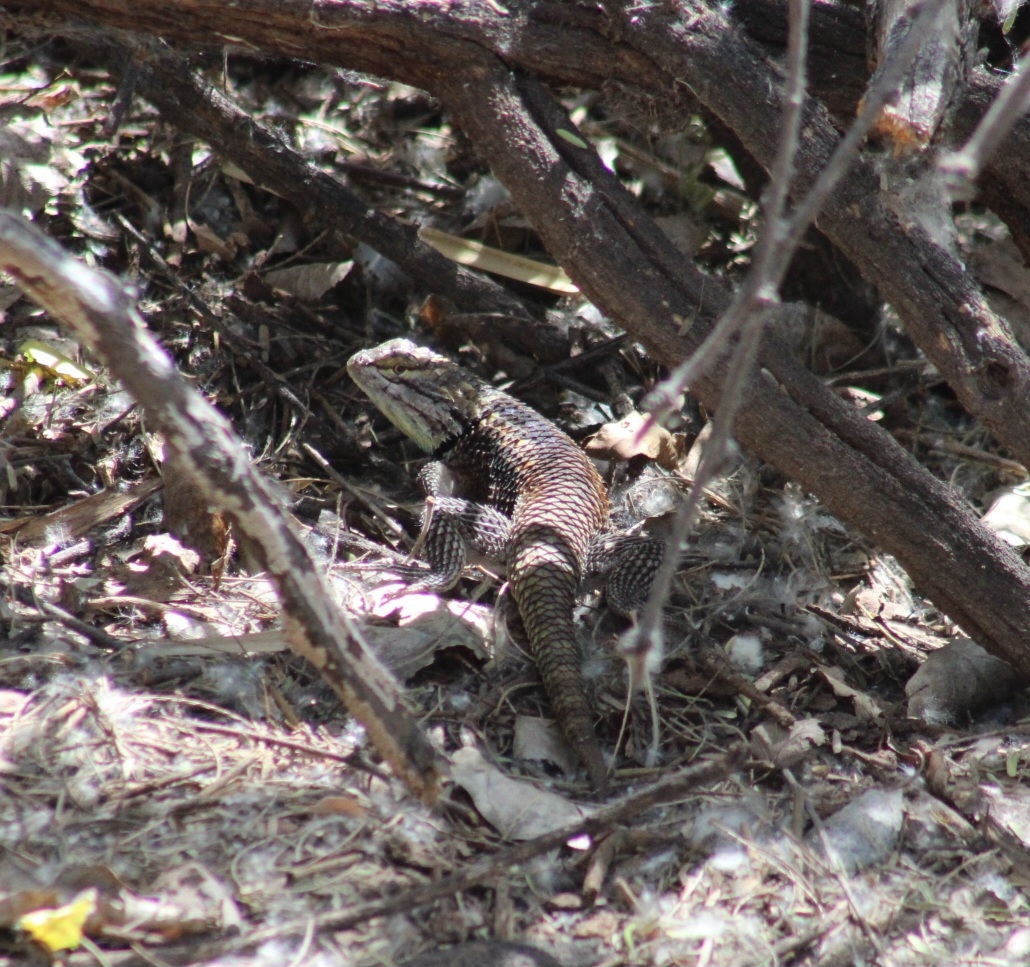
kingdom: Animalia
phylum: Chordata
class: Squamata
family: Phrynosomatidae
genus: Sceloporus
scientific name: Sceloporus magister
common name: Desert spiny lizard
